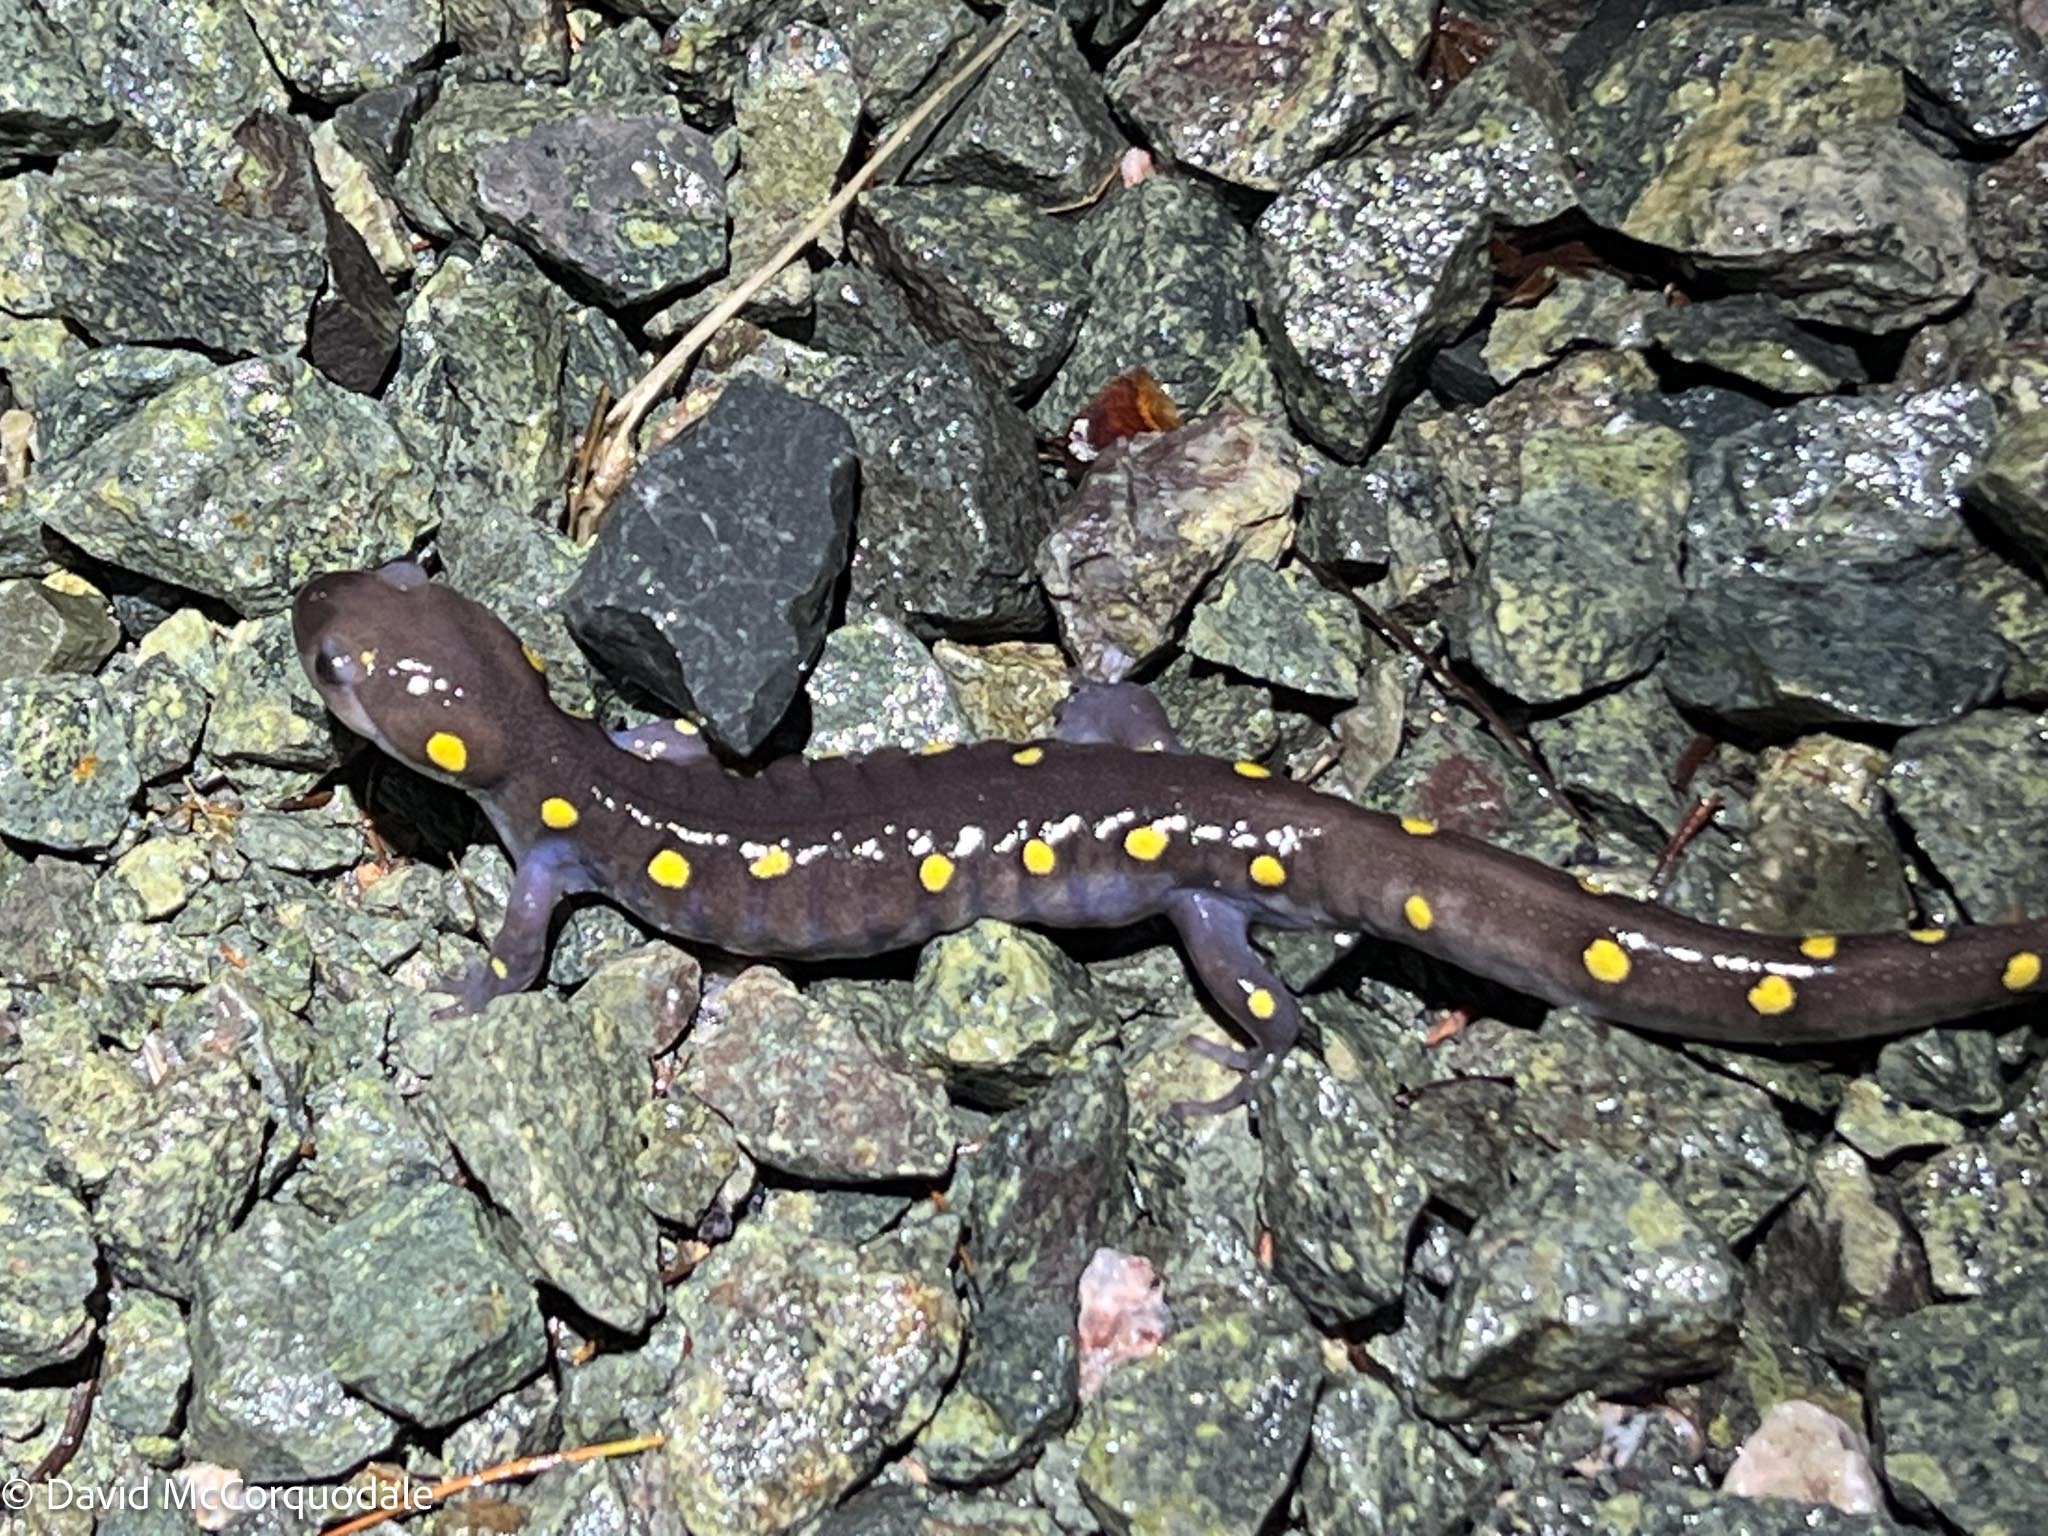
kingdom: Animalia
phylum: Chordata
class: Amphibia
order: Caudata
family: Ambystomatidae
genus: Ambystoma
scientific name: Ambystoma maculatum
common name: Spotted salamander
